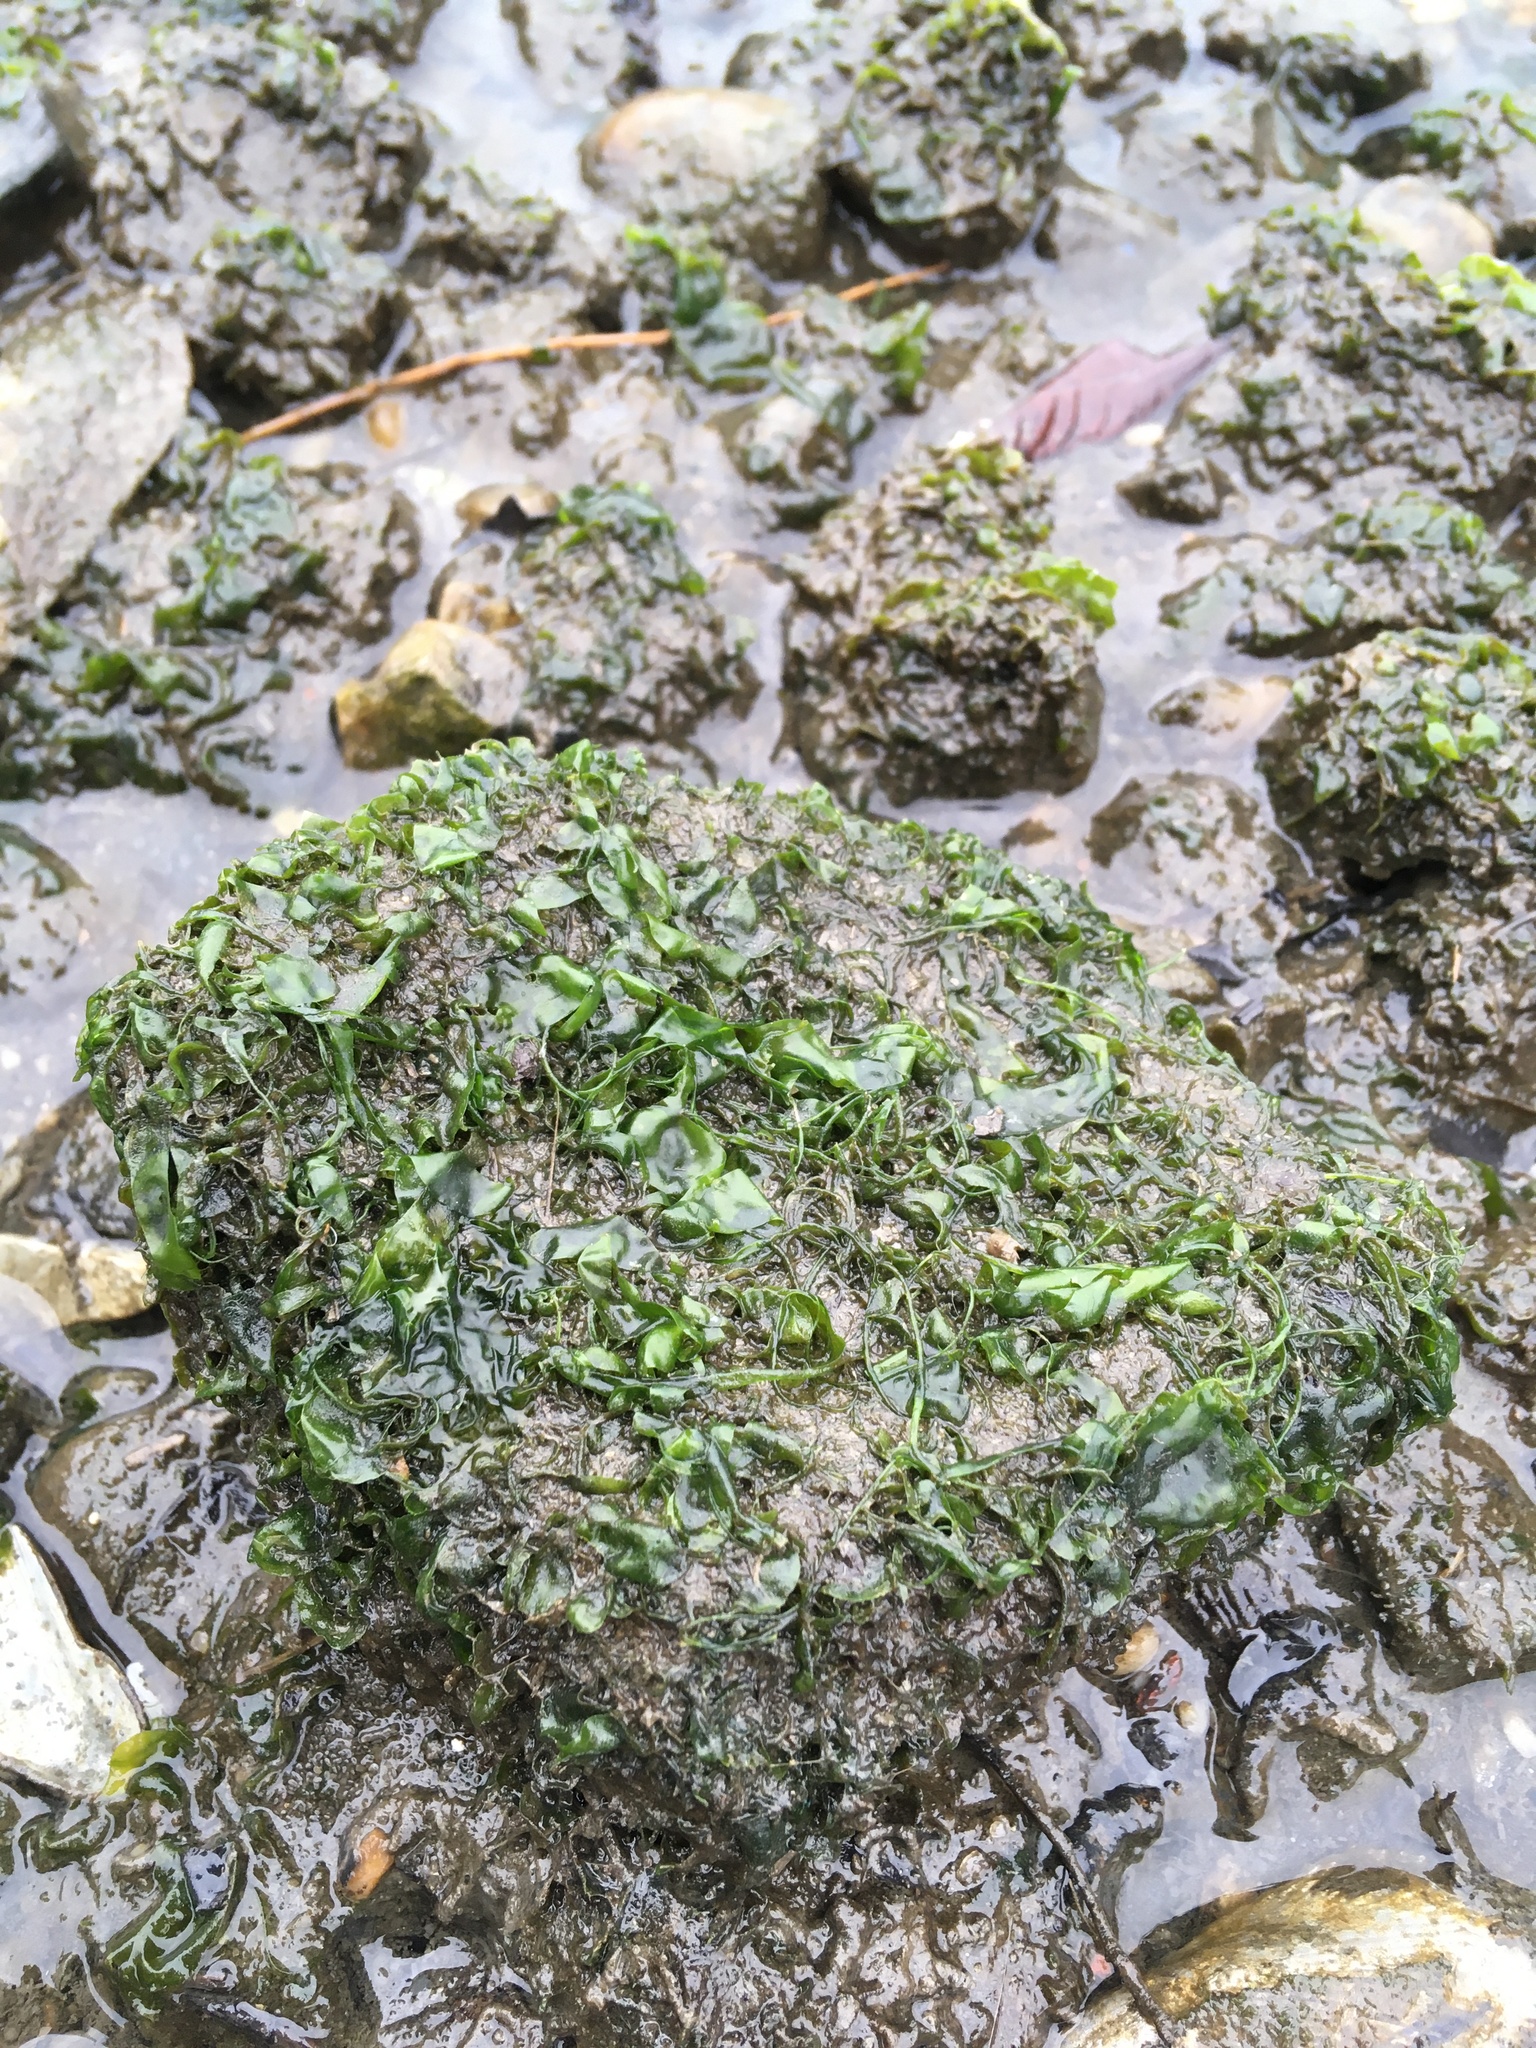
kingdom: Plantae
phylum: Chlorophyta
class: Ulvophyceae
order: Ulvales
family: Ulvaceae
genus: Ulva
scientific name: Ulva lactuca
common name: Sea lettuce
